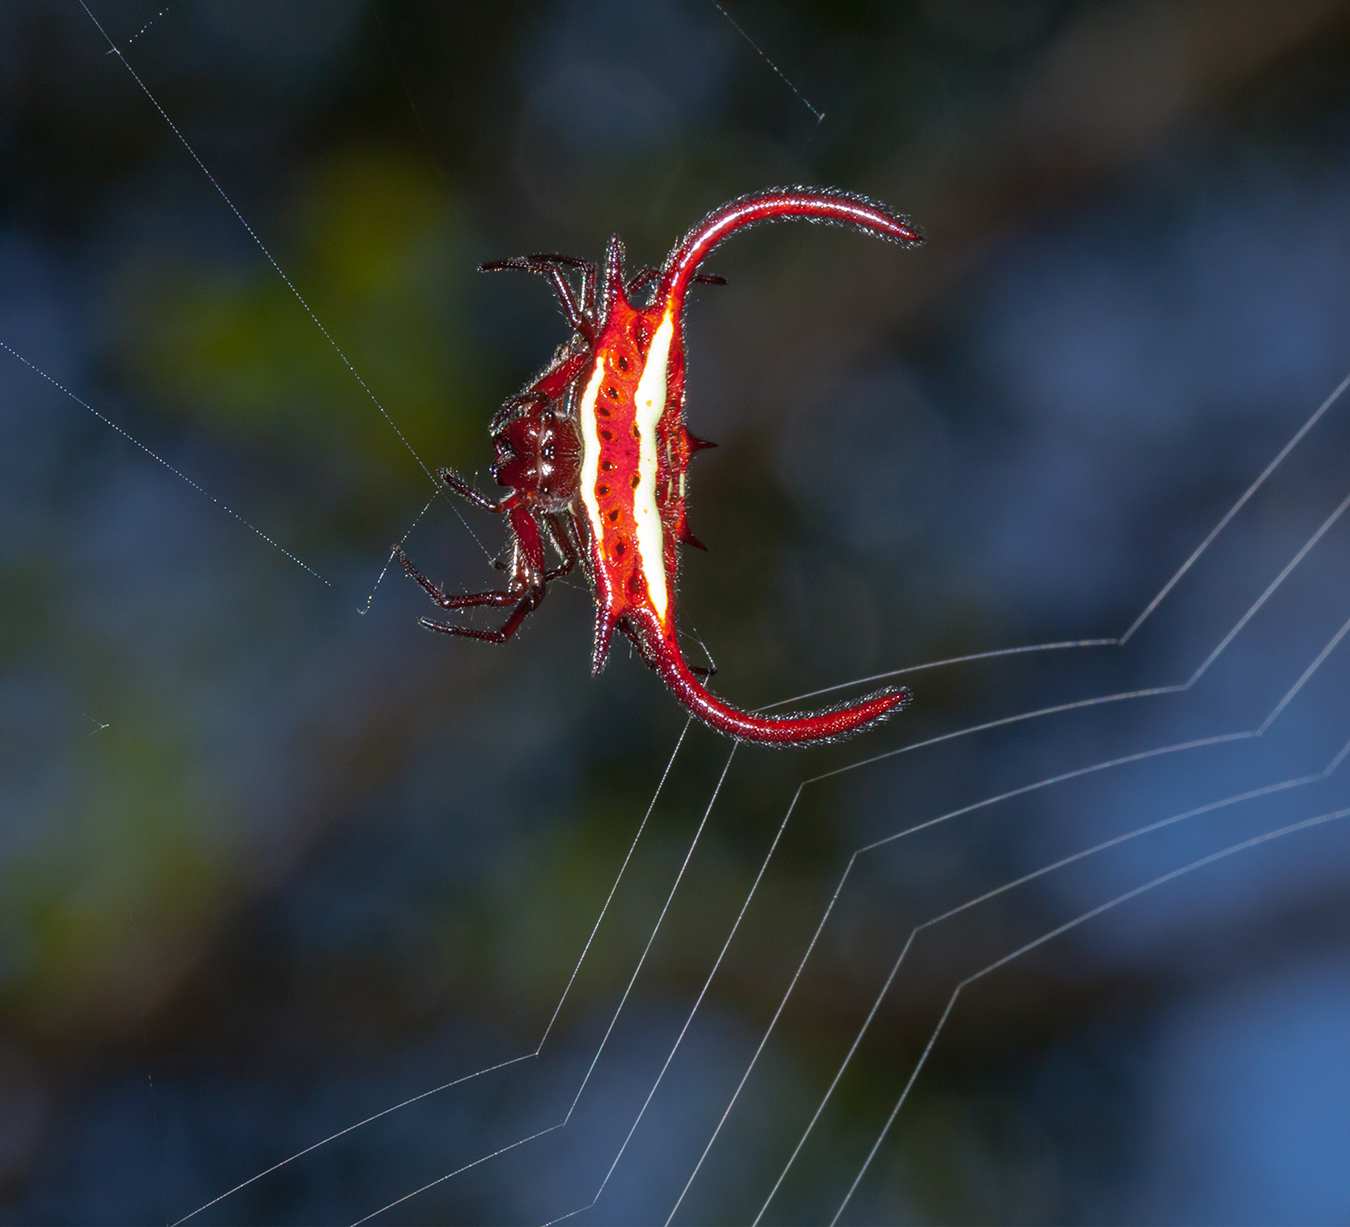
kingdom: Animalia
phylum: Arthropoda
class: Arachnida
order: Araneae
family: Araneidae
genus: Gasteracantha
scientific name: Gasteracantha falcicornis
